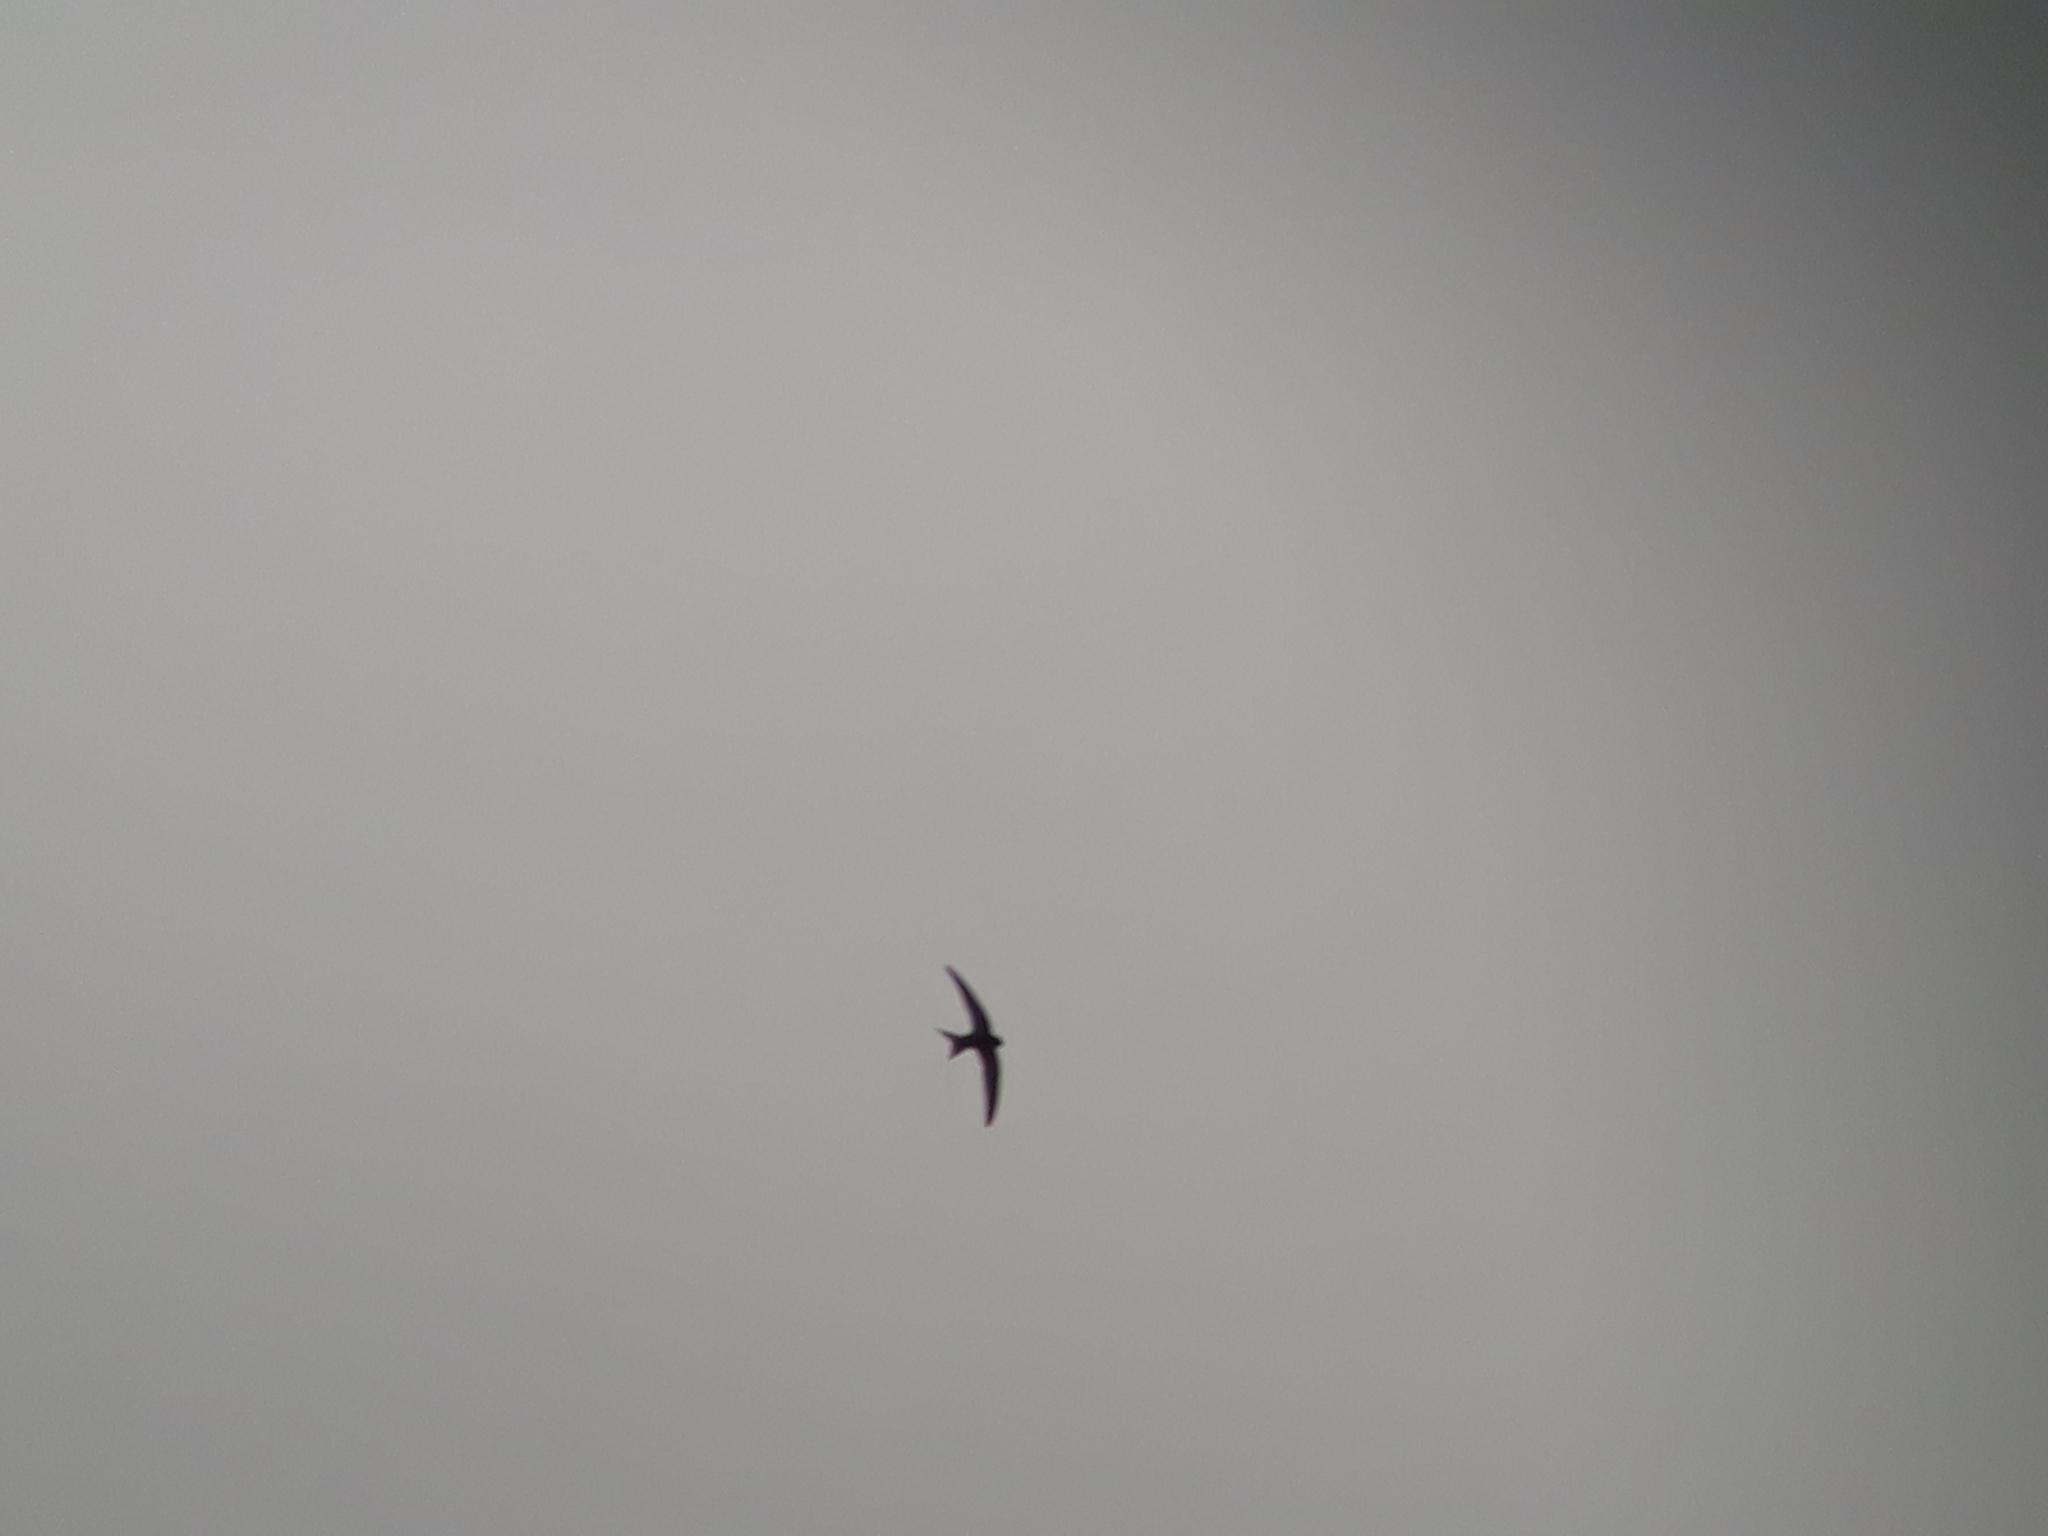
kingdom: Animalia
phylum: Chordata
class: Aves
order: Apodiformes
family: Apodidae
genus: Apus
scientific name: Apus apus
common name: Common swift
